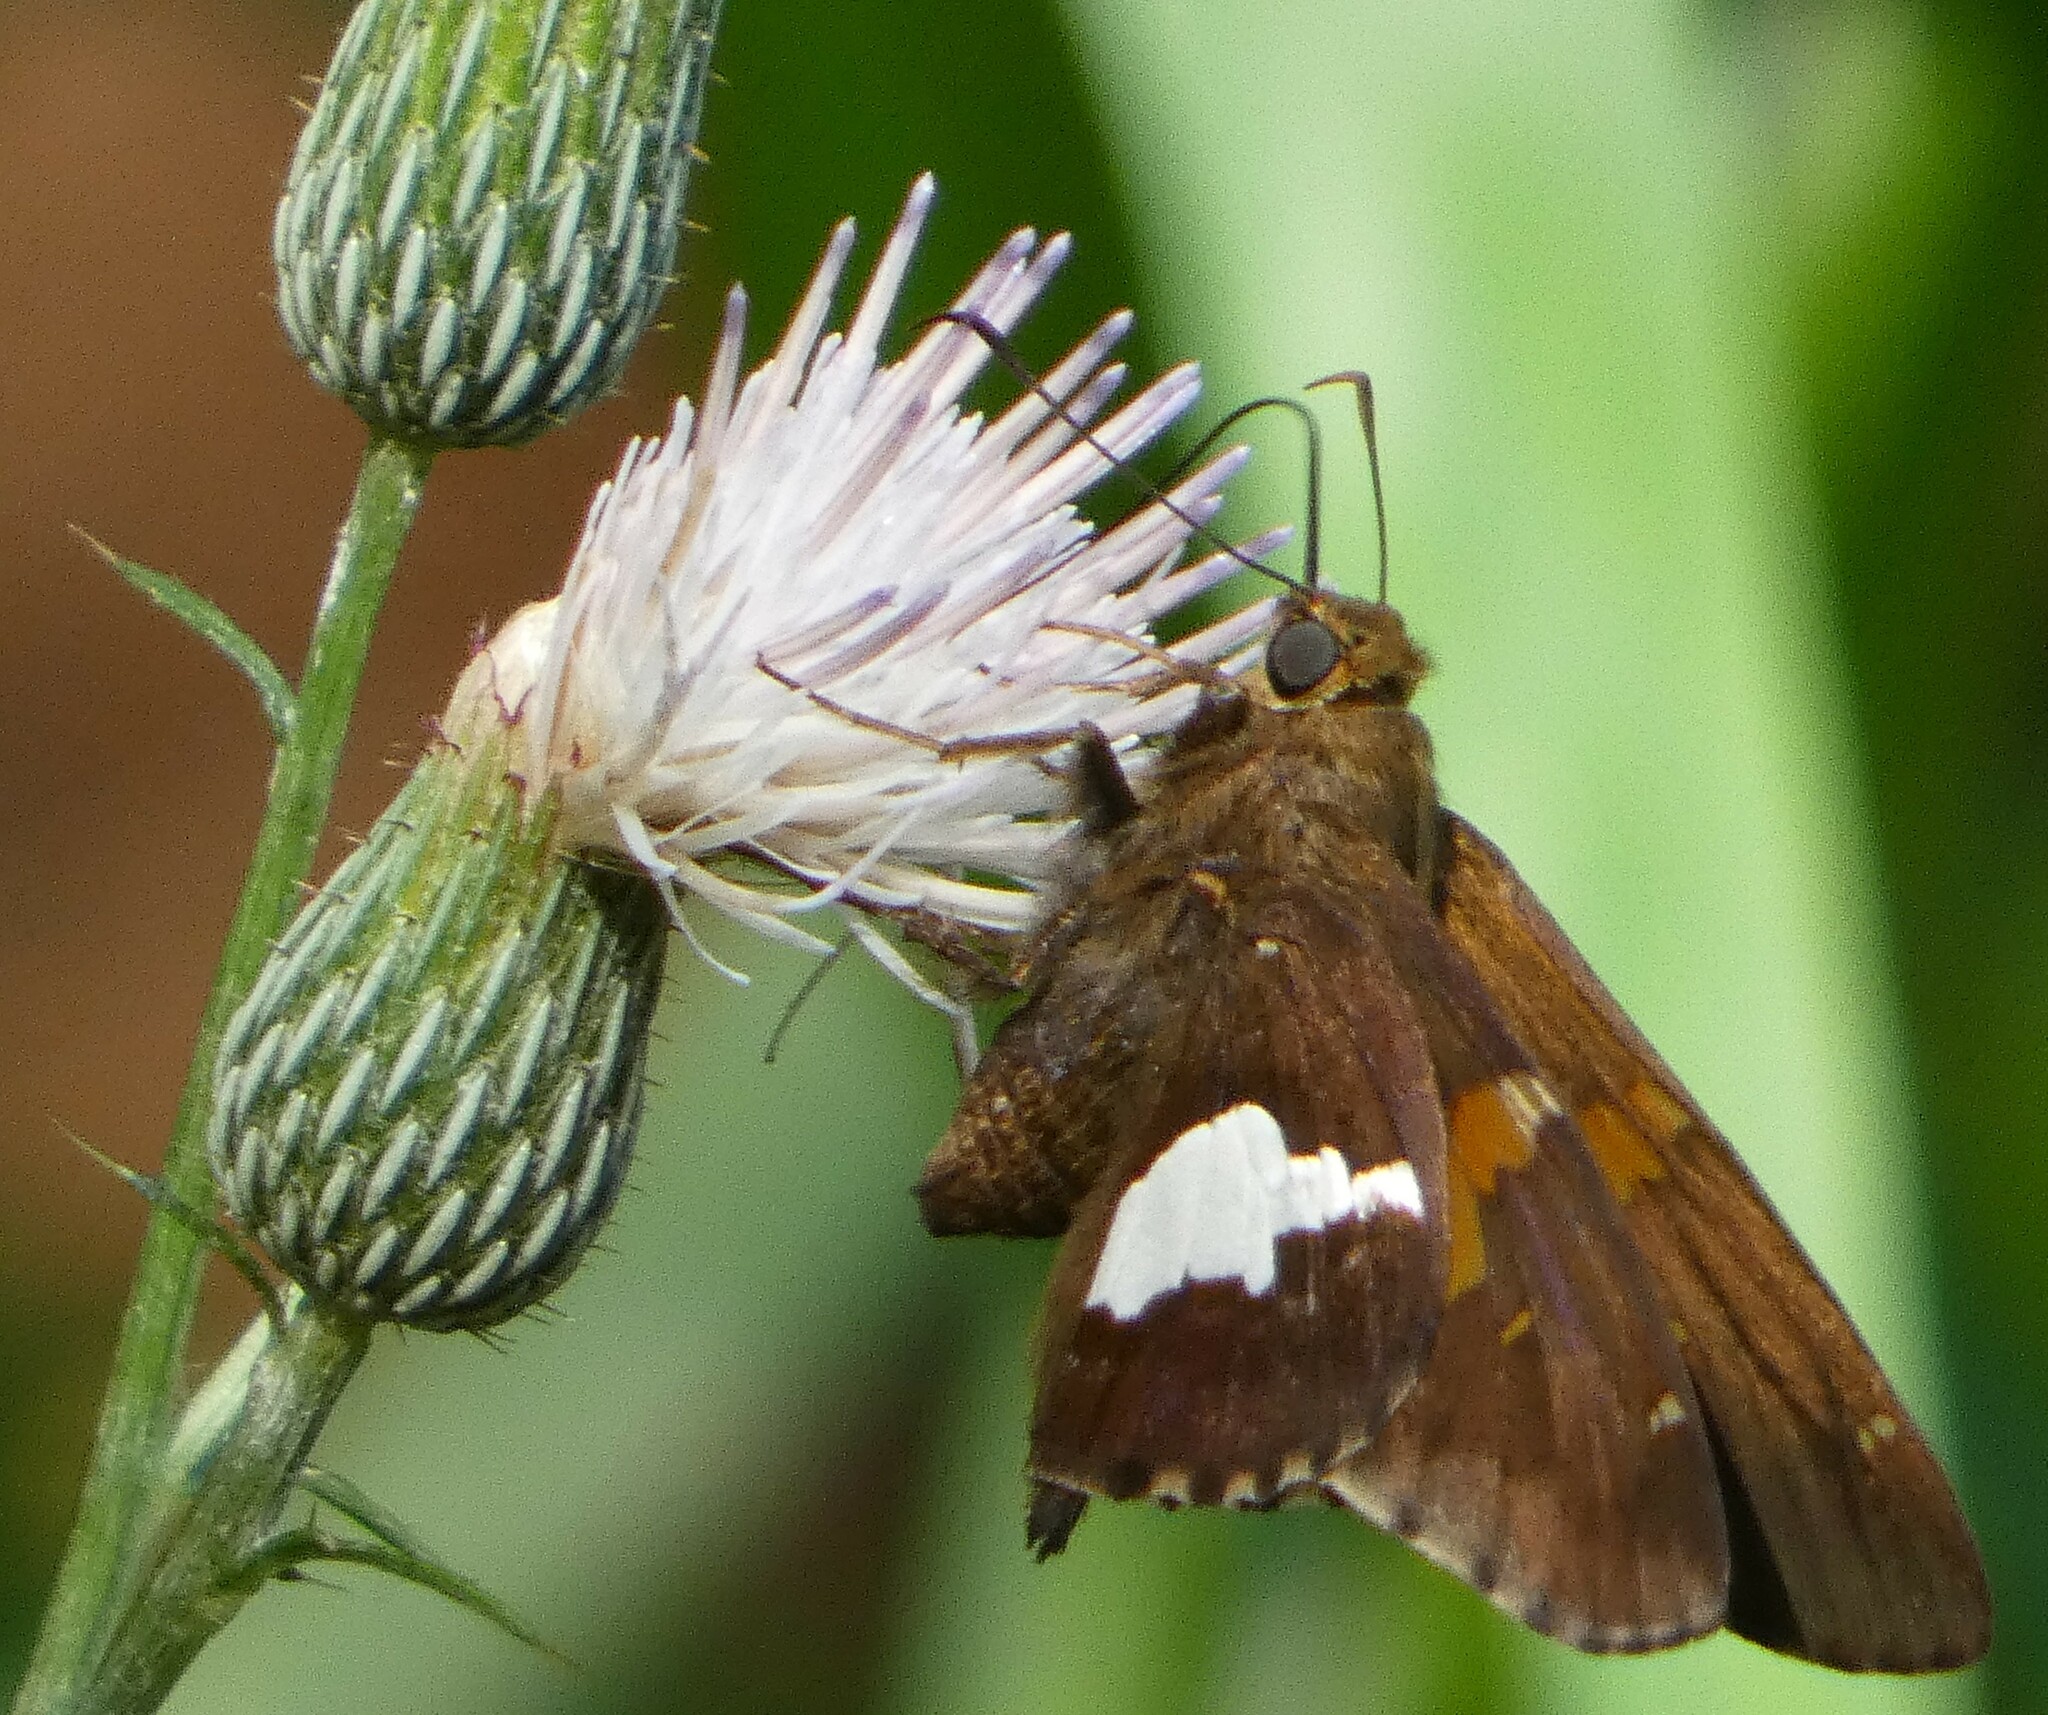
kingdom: Animalia
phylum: Arthropoda
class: Insecta
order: Lepidoptera
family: Hesperiidae
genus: Epargyreus
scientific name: Epargyreus clarus
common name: Silver-spotted skipper
